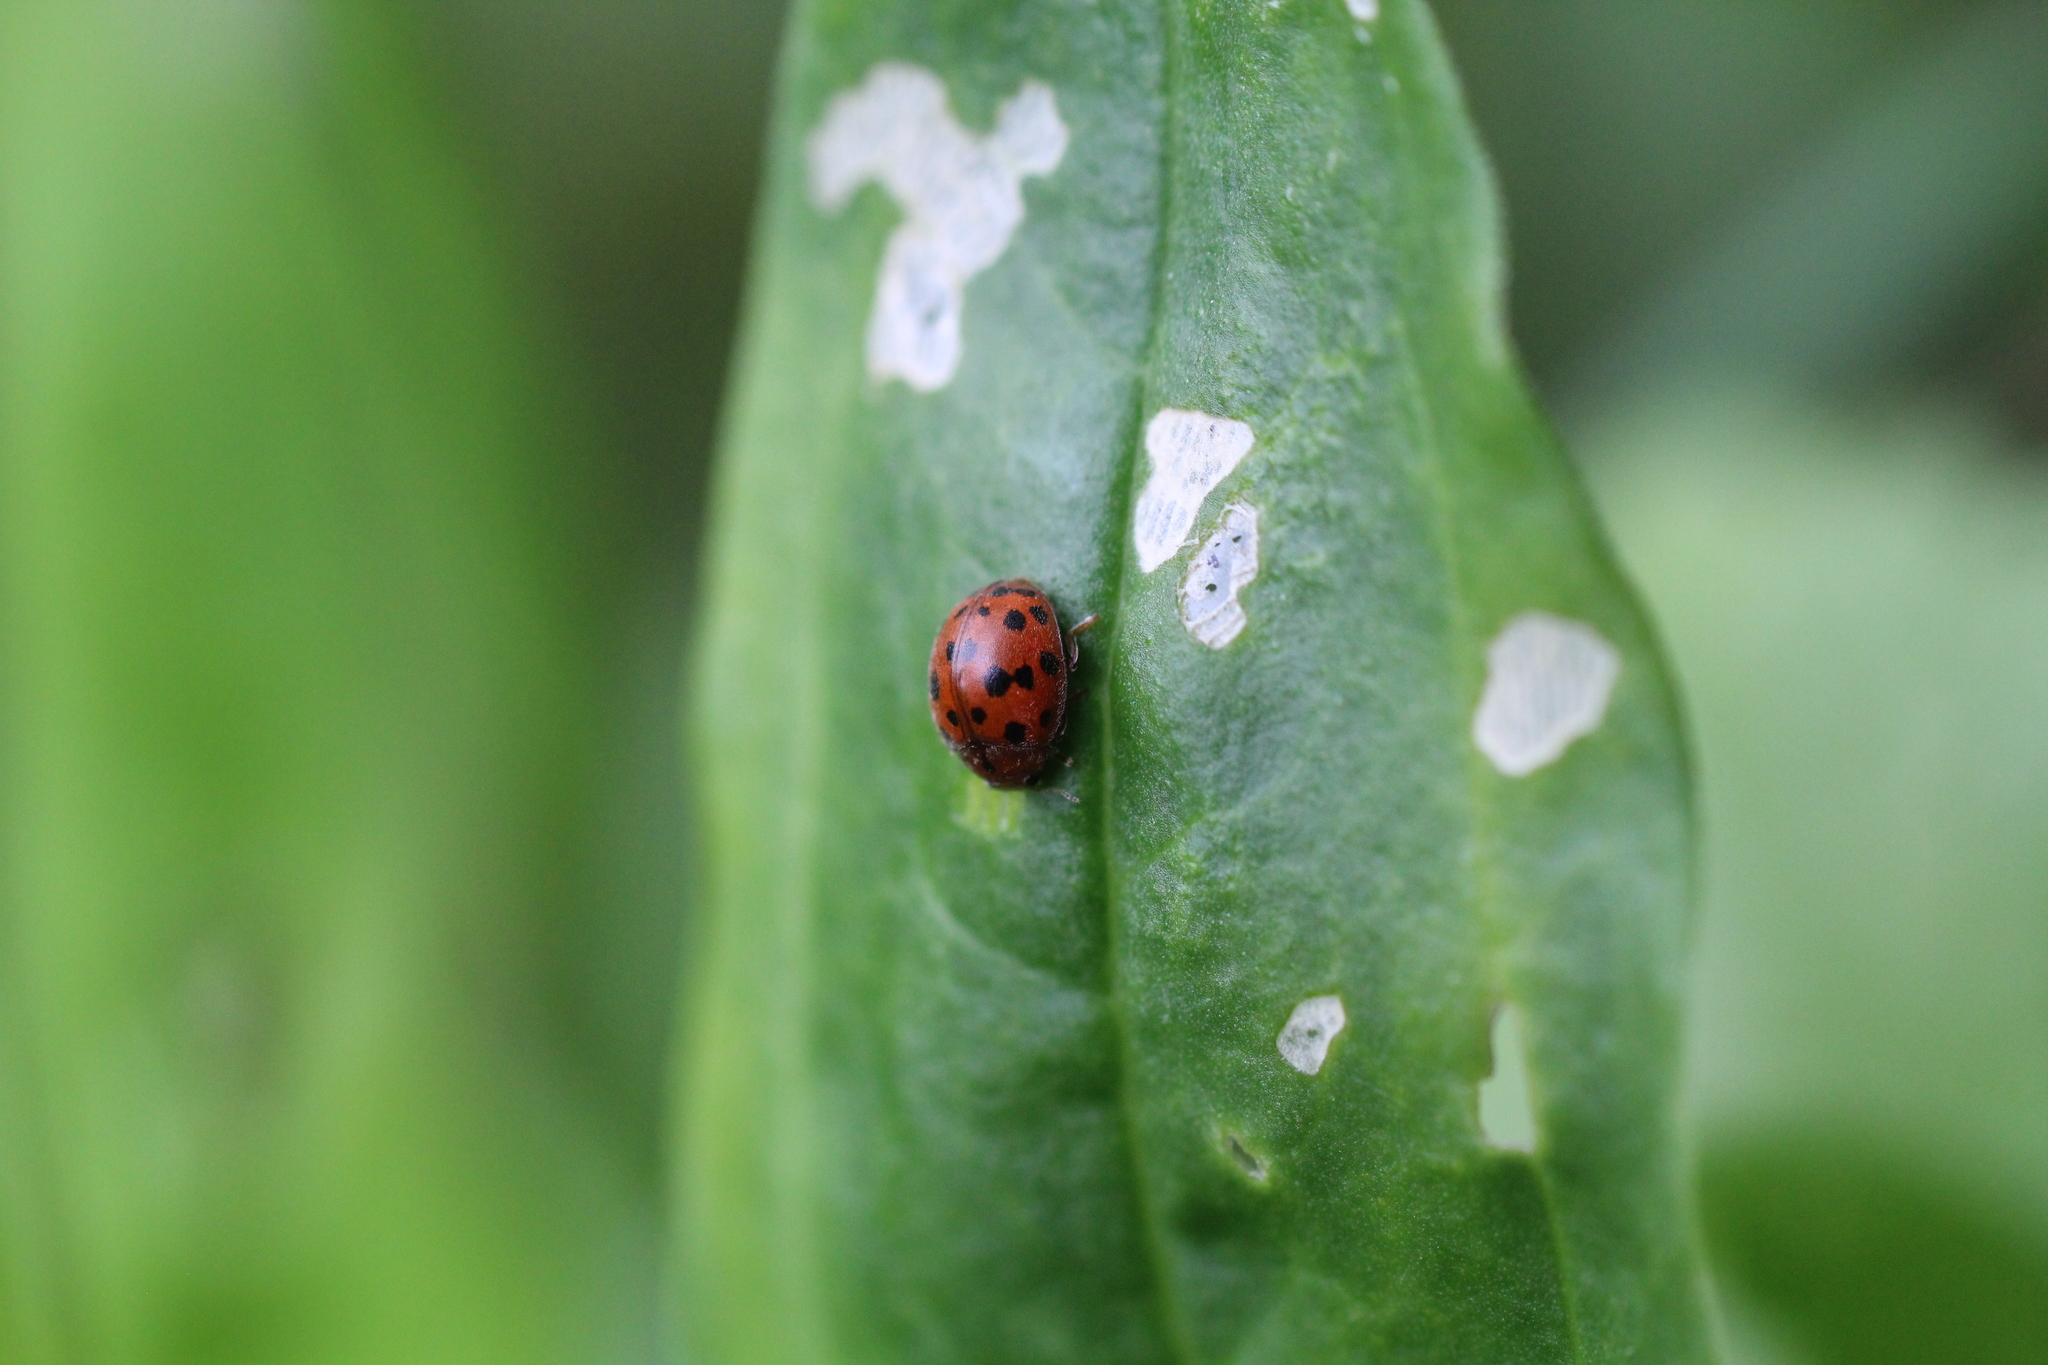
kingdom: Animalia
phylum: Arthropoda
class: Insecta
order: Coleoptera
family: Coccinellidae
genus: Subcoccinella
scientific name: Subcoccinella vigintiquatuorpunctata
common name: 24-spot ladybird
